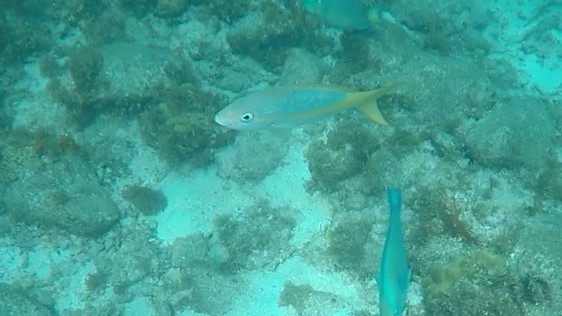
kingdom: Animalia
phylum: Chordata
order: Perciformes
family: Lutjanidae
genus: Ocyurus
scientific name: Ocyurus chrysurus
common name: Yellowtail snapper
